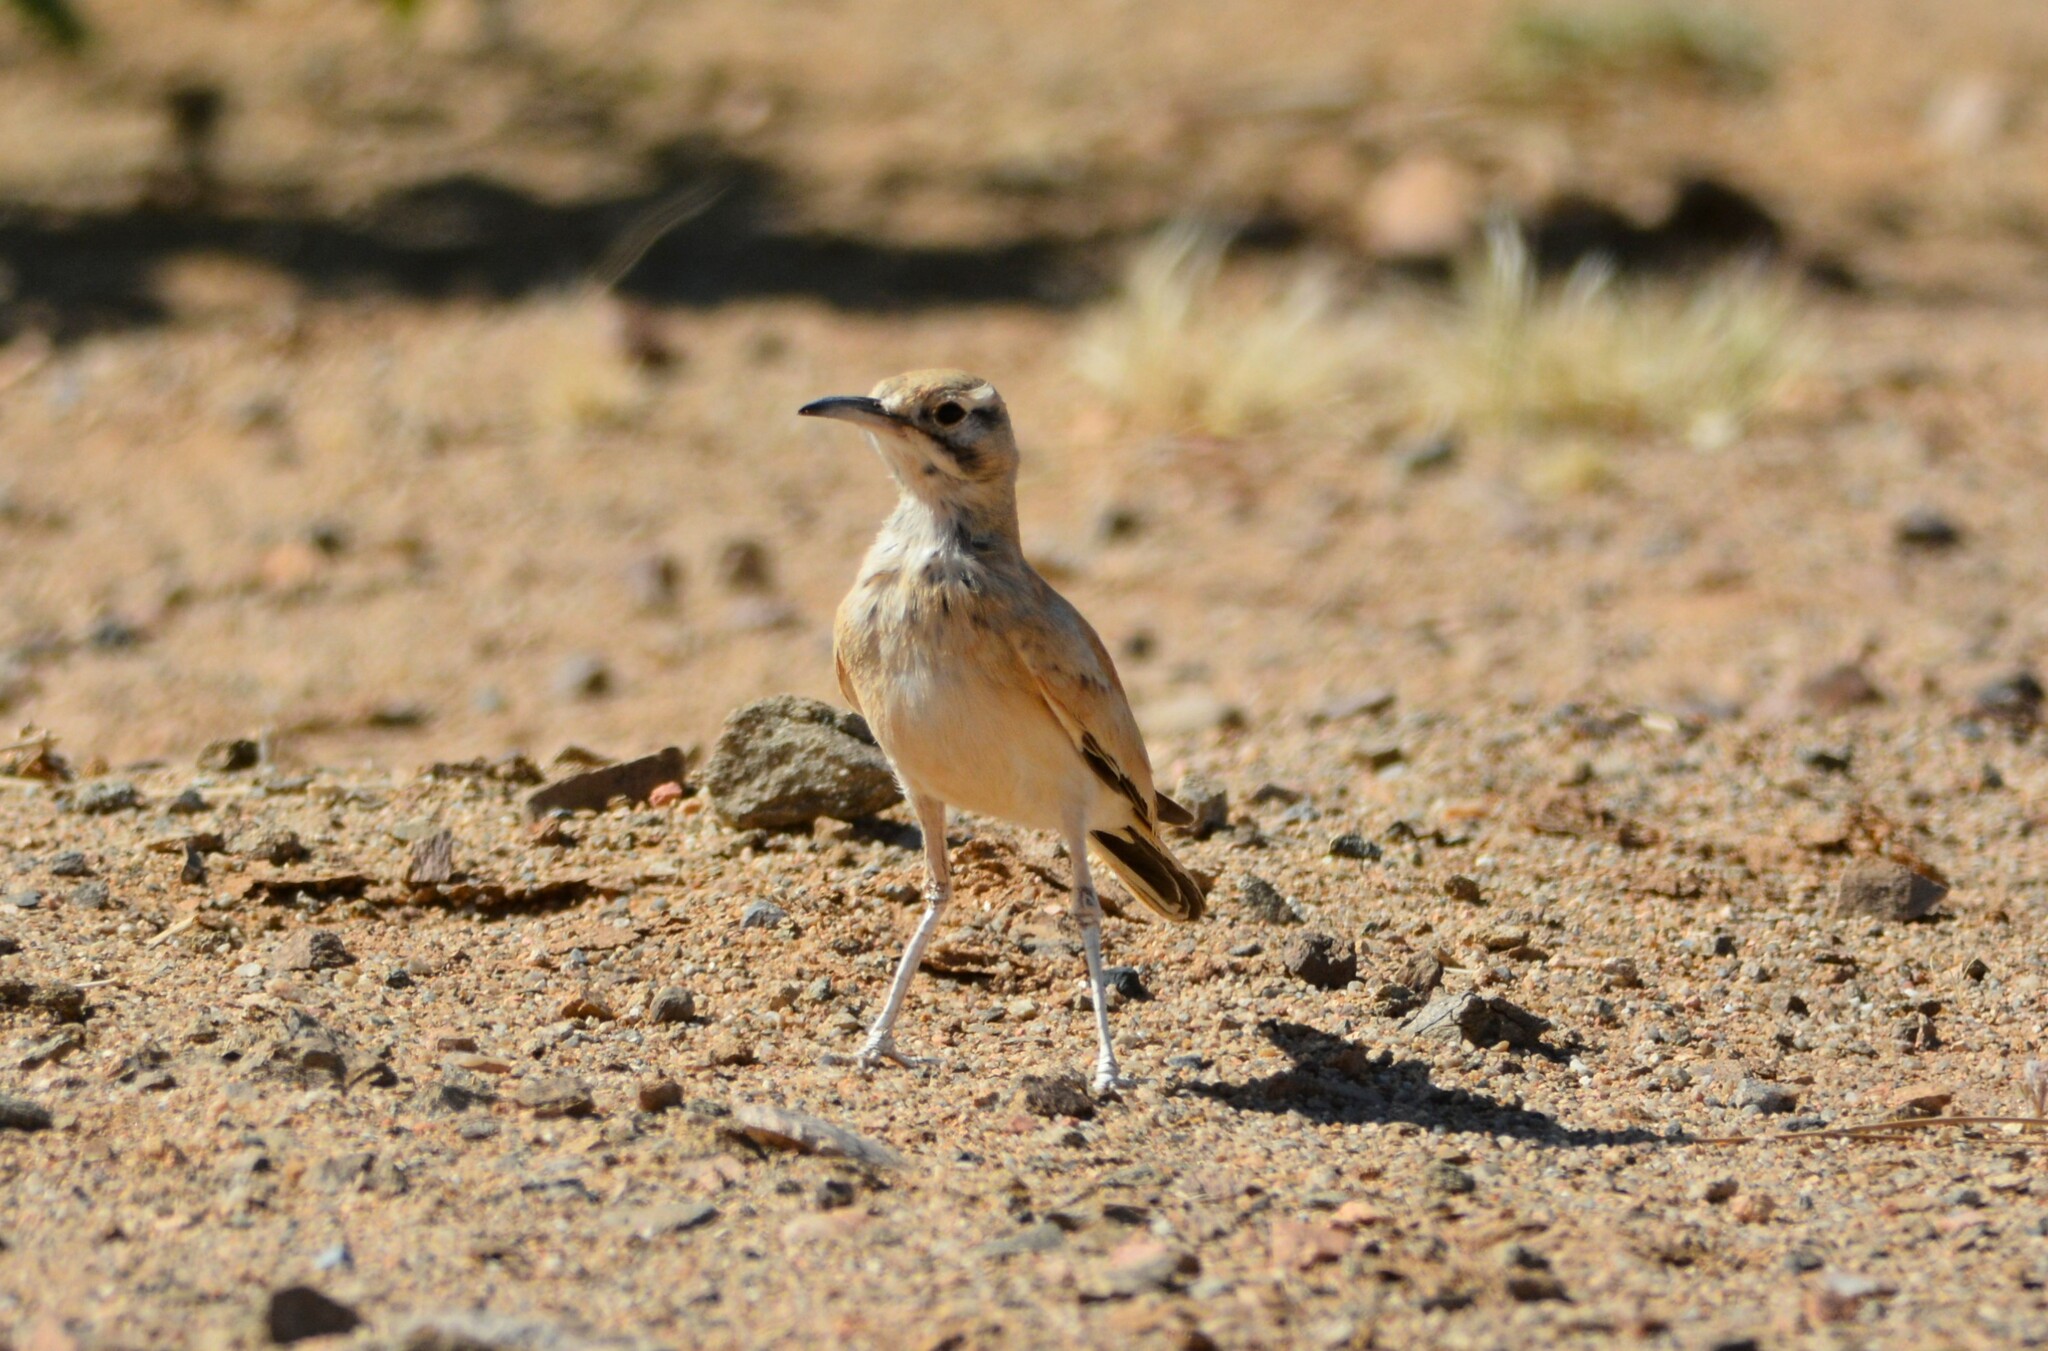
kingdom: Animalia
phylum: Chordata
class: Aves
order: Passeriformes
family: Alaudidae
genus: Alaemon
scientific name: Alaemon alaudipes
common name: Greater hoopoe-lark
